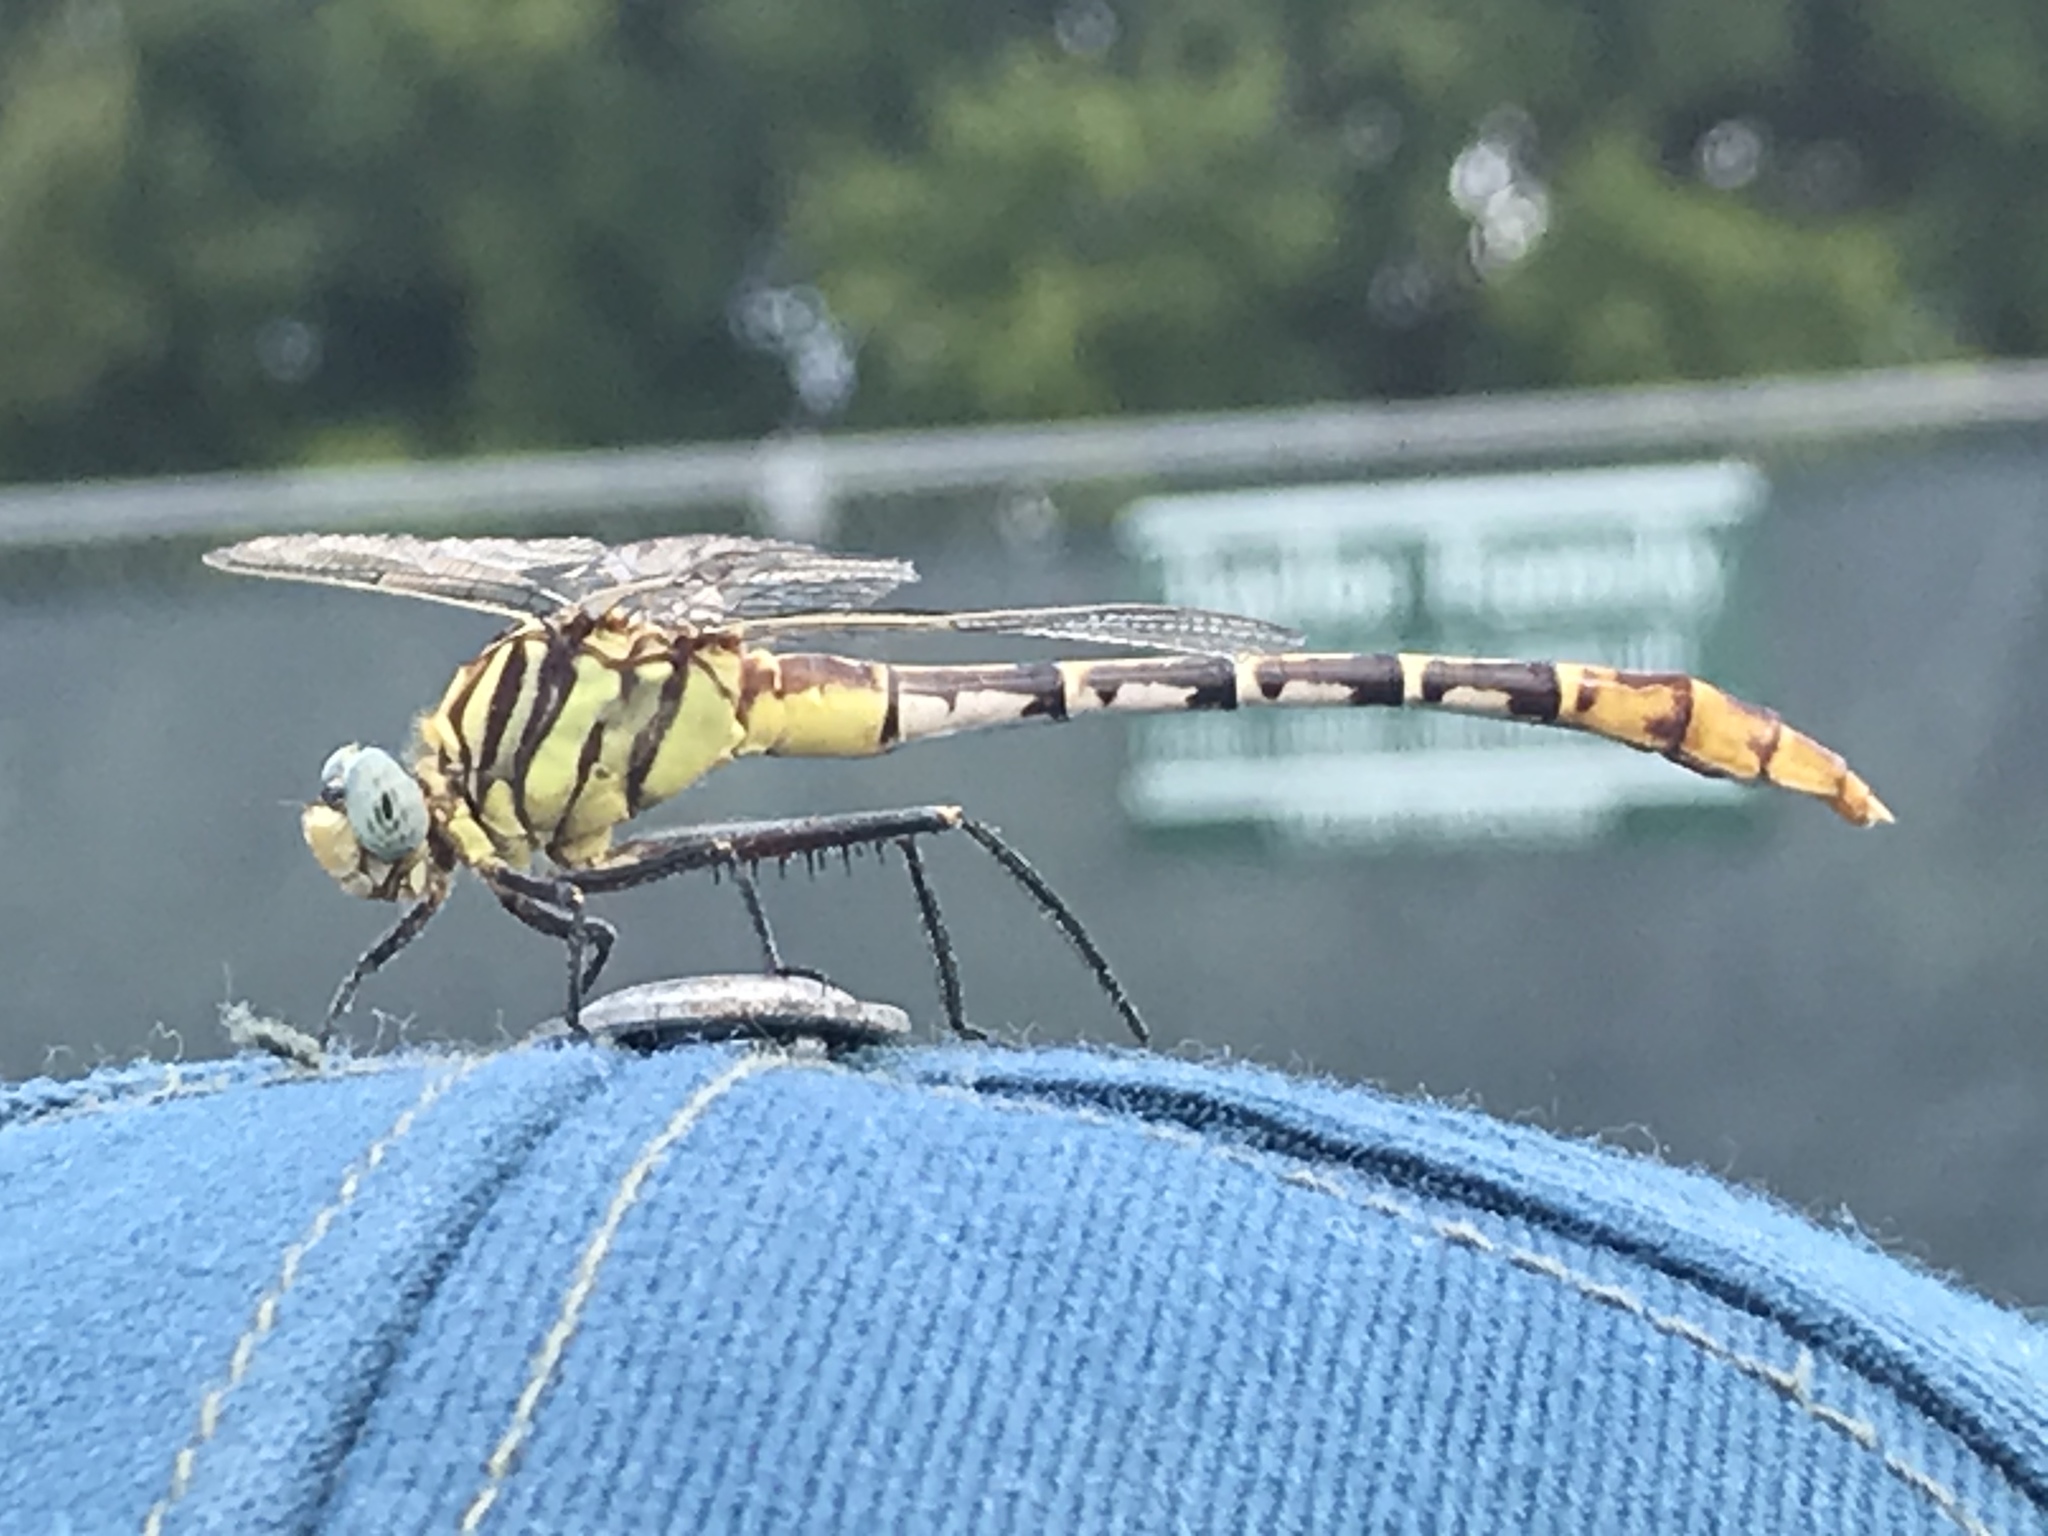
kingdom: Animalia
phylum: Arthropoda
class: Insecta
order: Odonata
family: Gomphidae
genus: Dromogomphus
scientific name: Dromogomphus spoliatus
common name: Flag-tailed spinyleg
